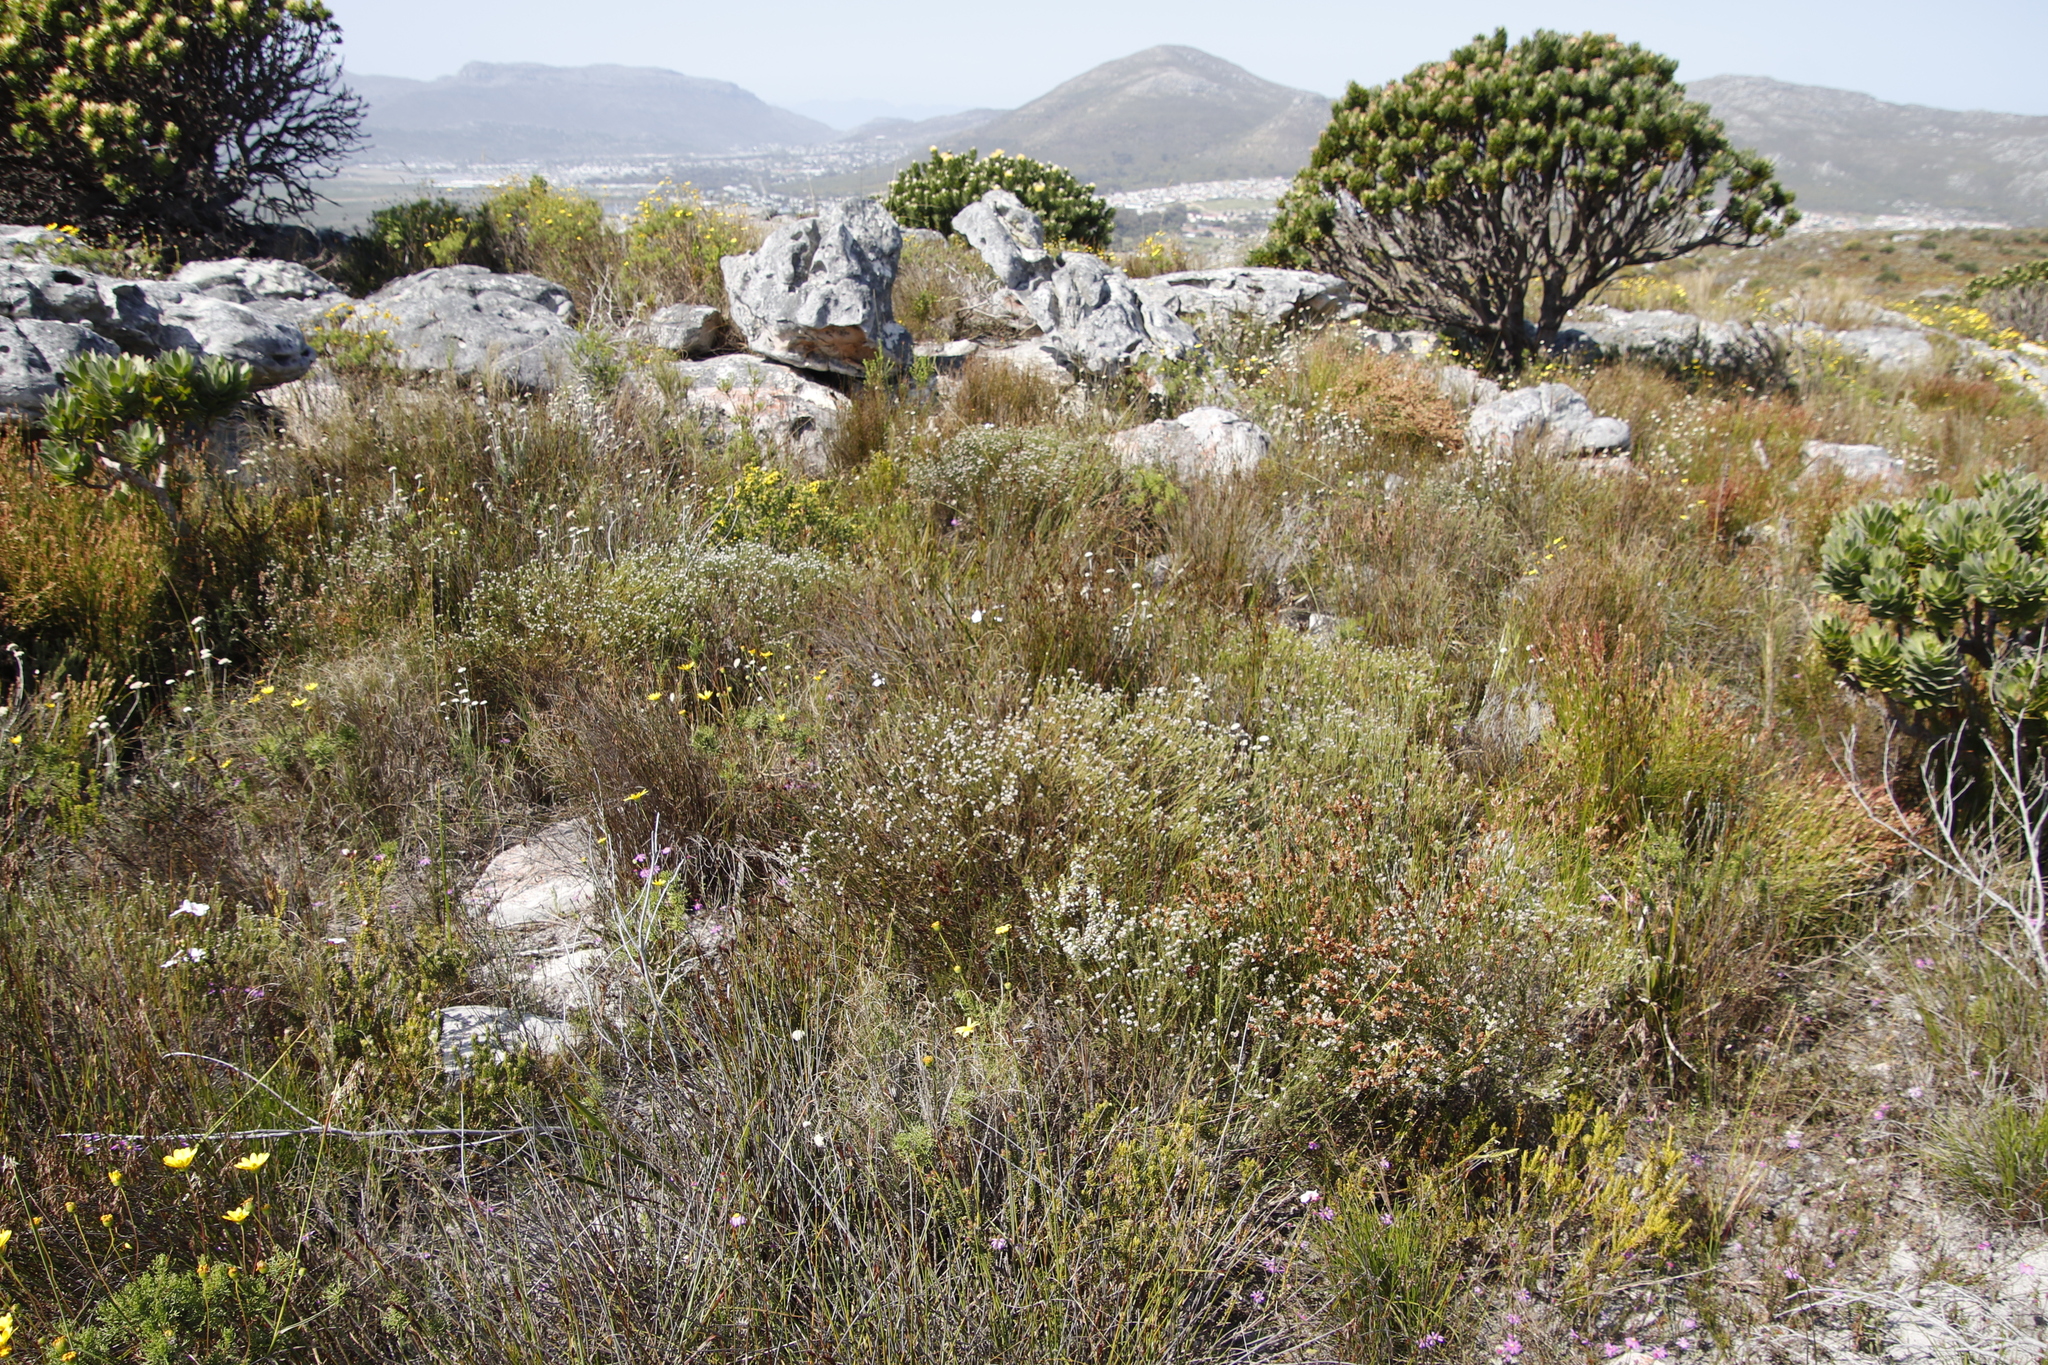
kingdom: Plantae
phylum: Tracheophyta
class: Magnoliopsida
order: Bruniales
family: Bruniaceae
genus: Staavia
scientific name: Staavia radiata
